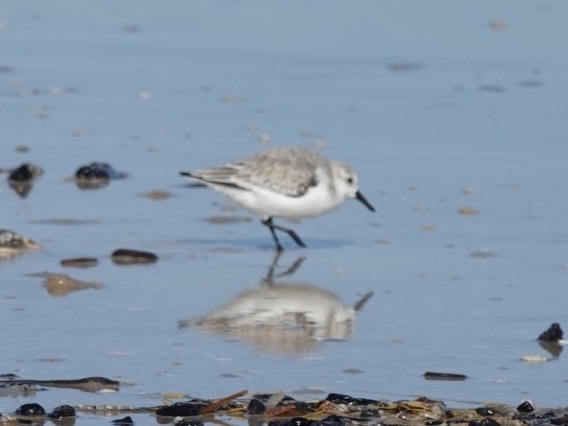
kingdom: Animalia
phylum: Chordata
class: Aves
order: Charadriiformes
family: Scolopacidae
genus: Calidris
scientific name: Calidris alba
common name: Sanderling
